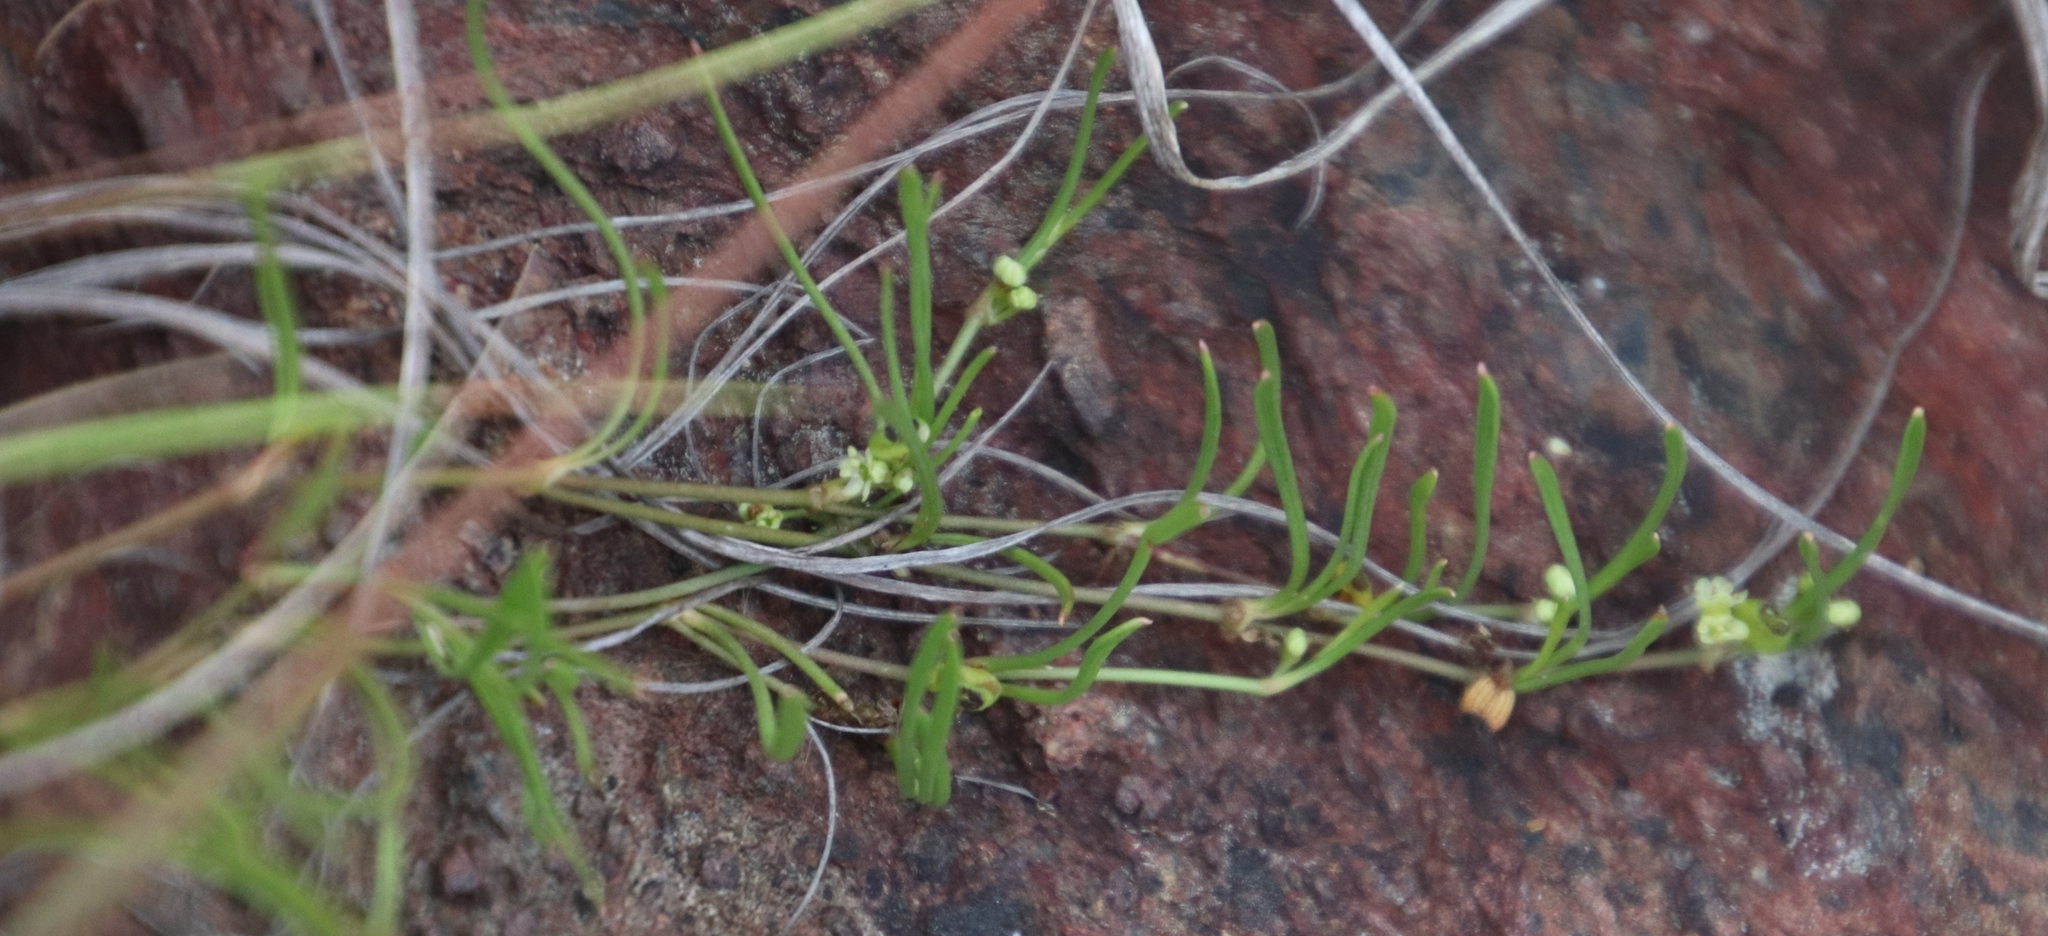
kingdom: Plantae
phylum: Tracheophyta
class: Magnoliopsida
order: Apiales
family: Apiaceae
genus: Centella
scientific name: Centella glabrata
